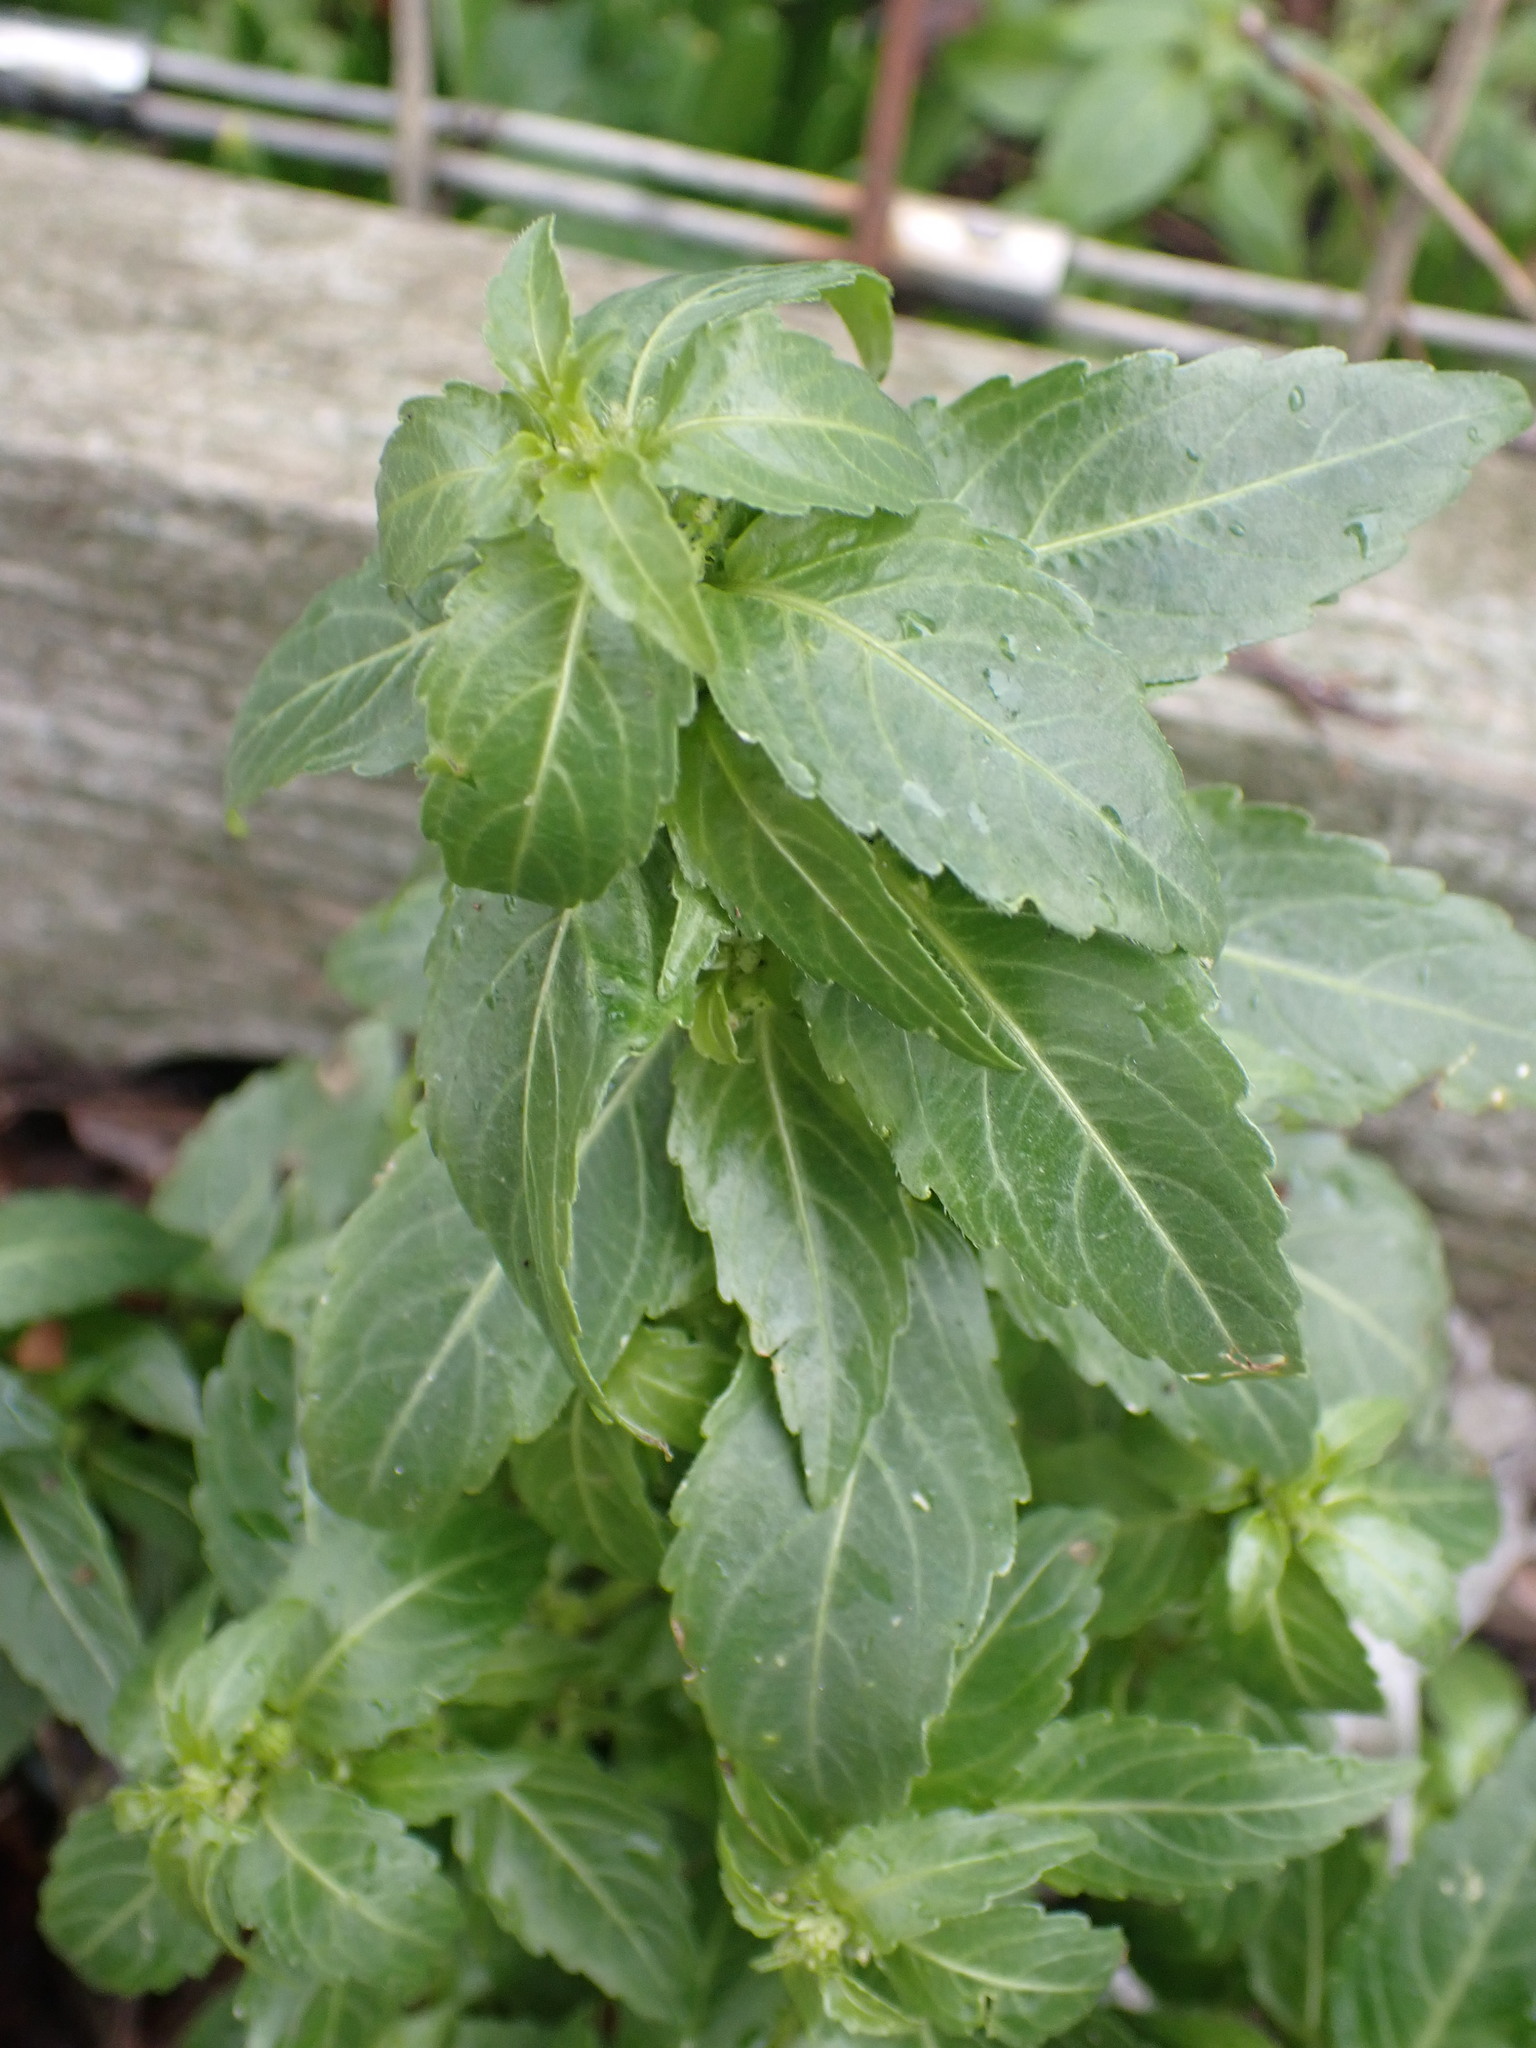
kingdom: Plantae
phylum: Tracheophyta
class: Magnoliopsida
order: Malpighiales
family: Euphorbiaceae
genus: Mercurialis
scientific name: Mercurialis annua
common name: Annual mercury
